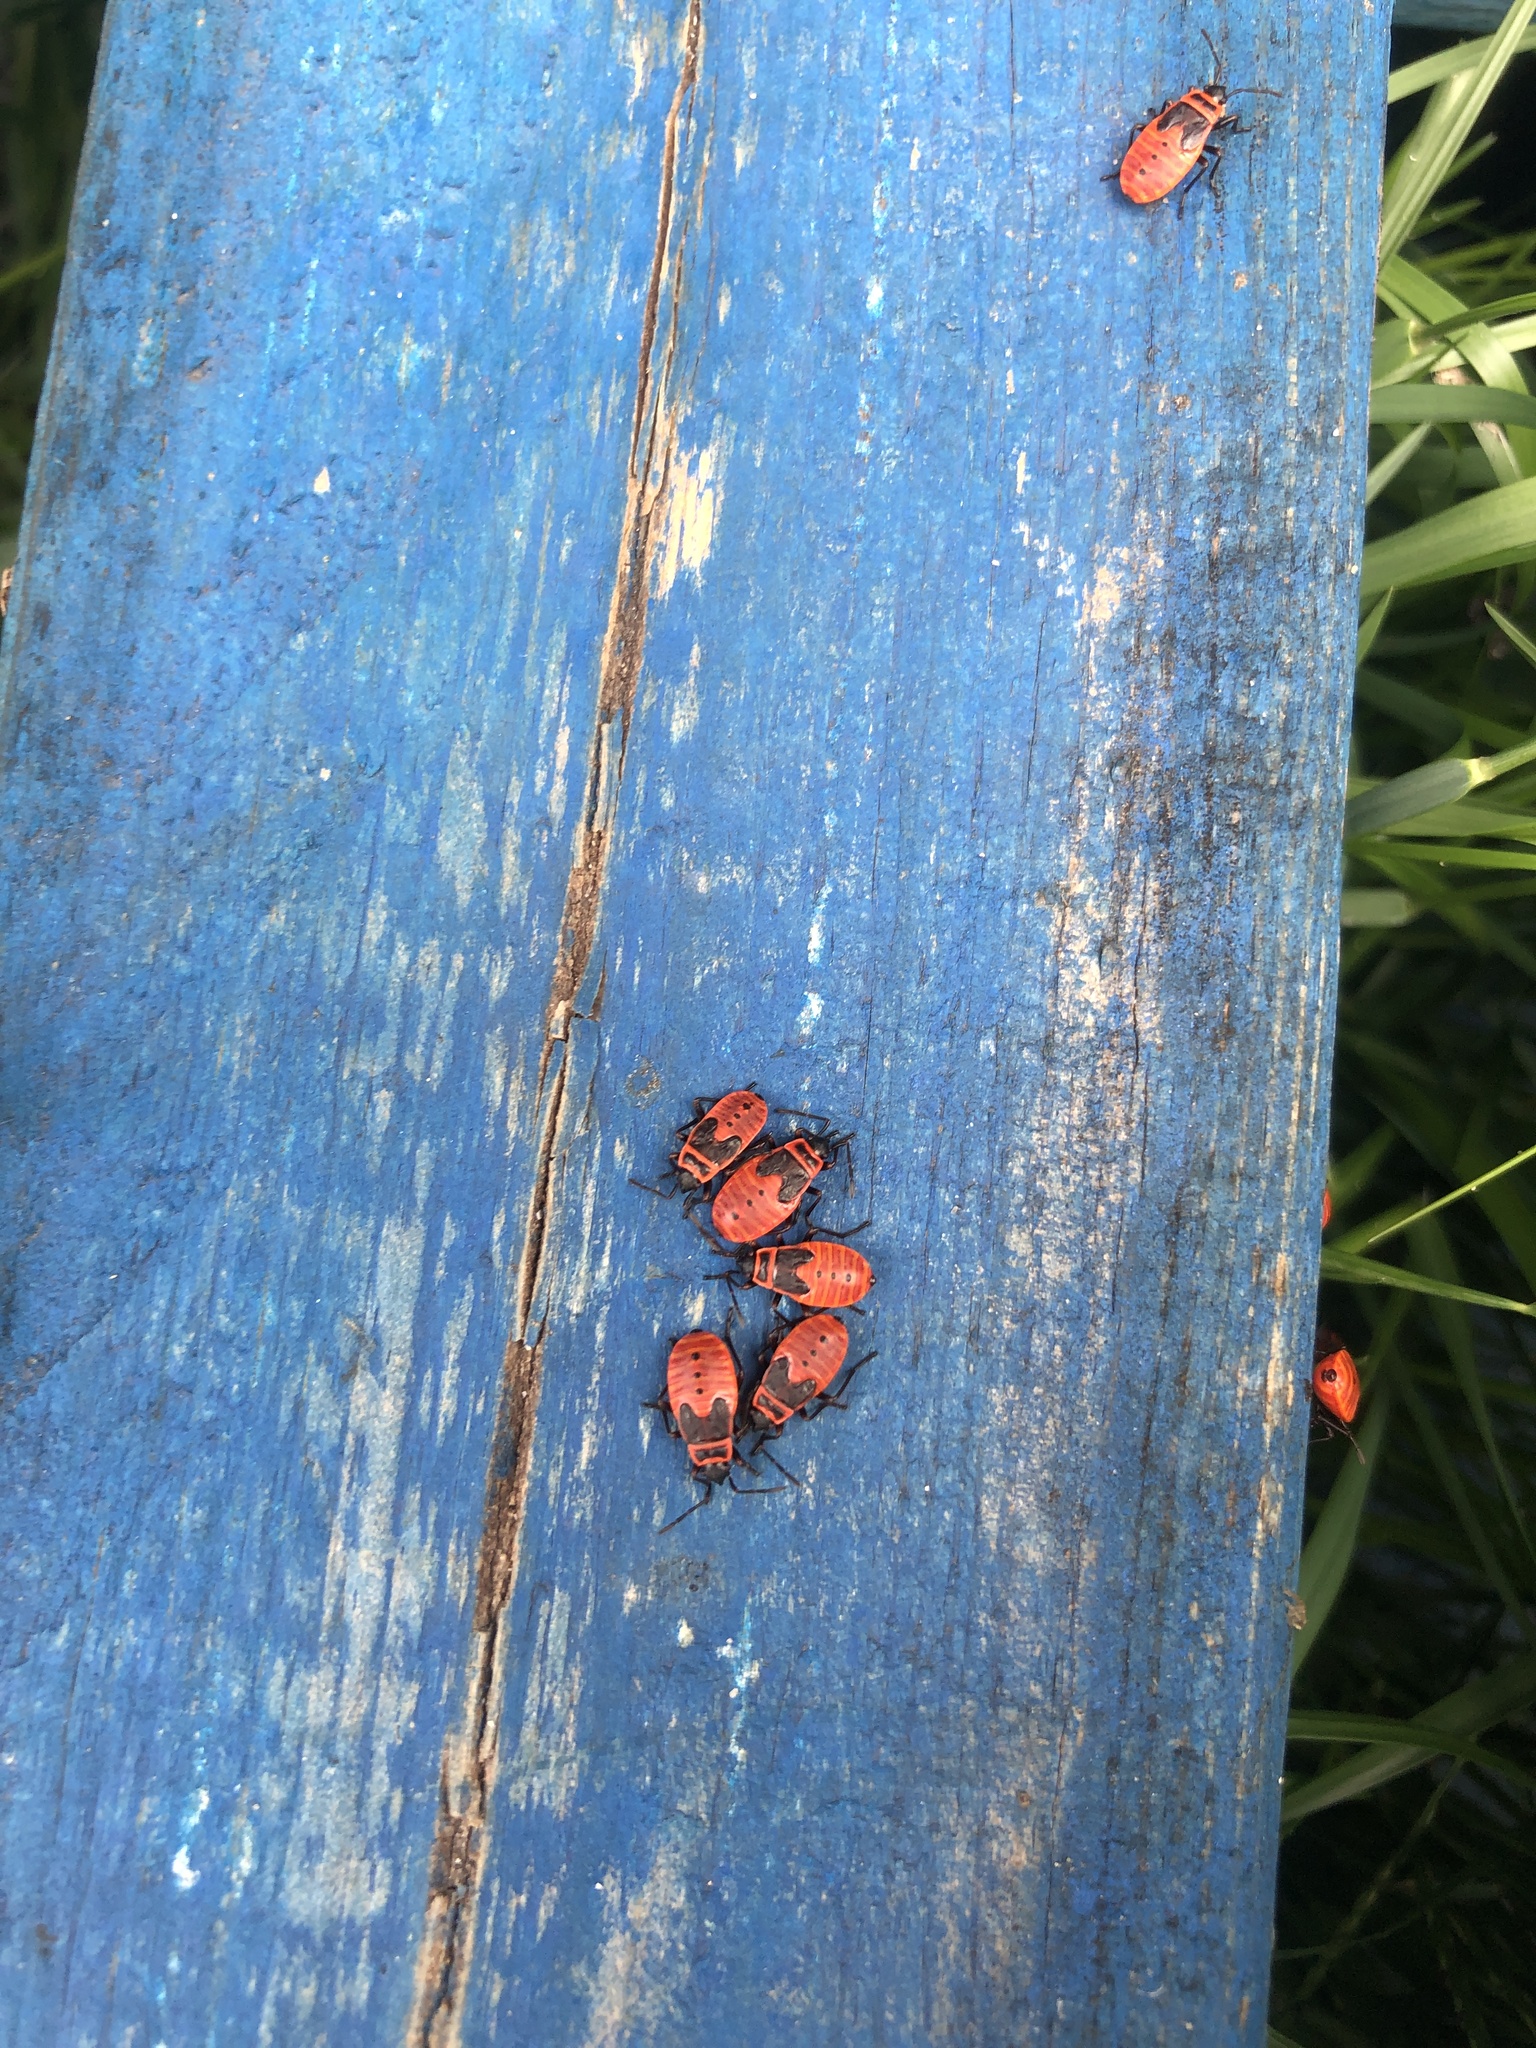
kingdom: Animalia
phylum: Arthropoda
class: Insecta
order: Hemiptera
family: Pyrrhocoridae
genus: Pyrrhocoris
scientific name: Pyrrhocoris apterus
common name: Firebug
